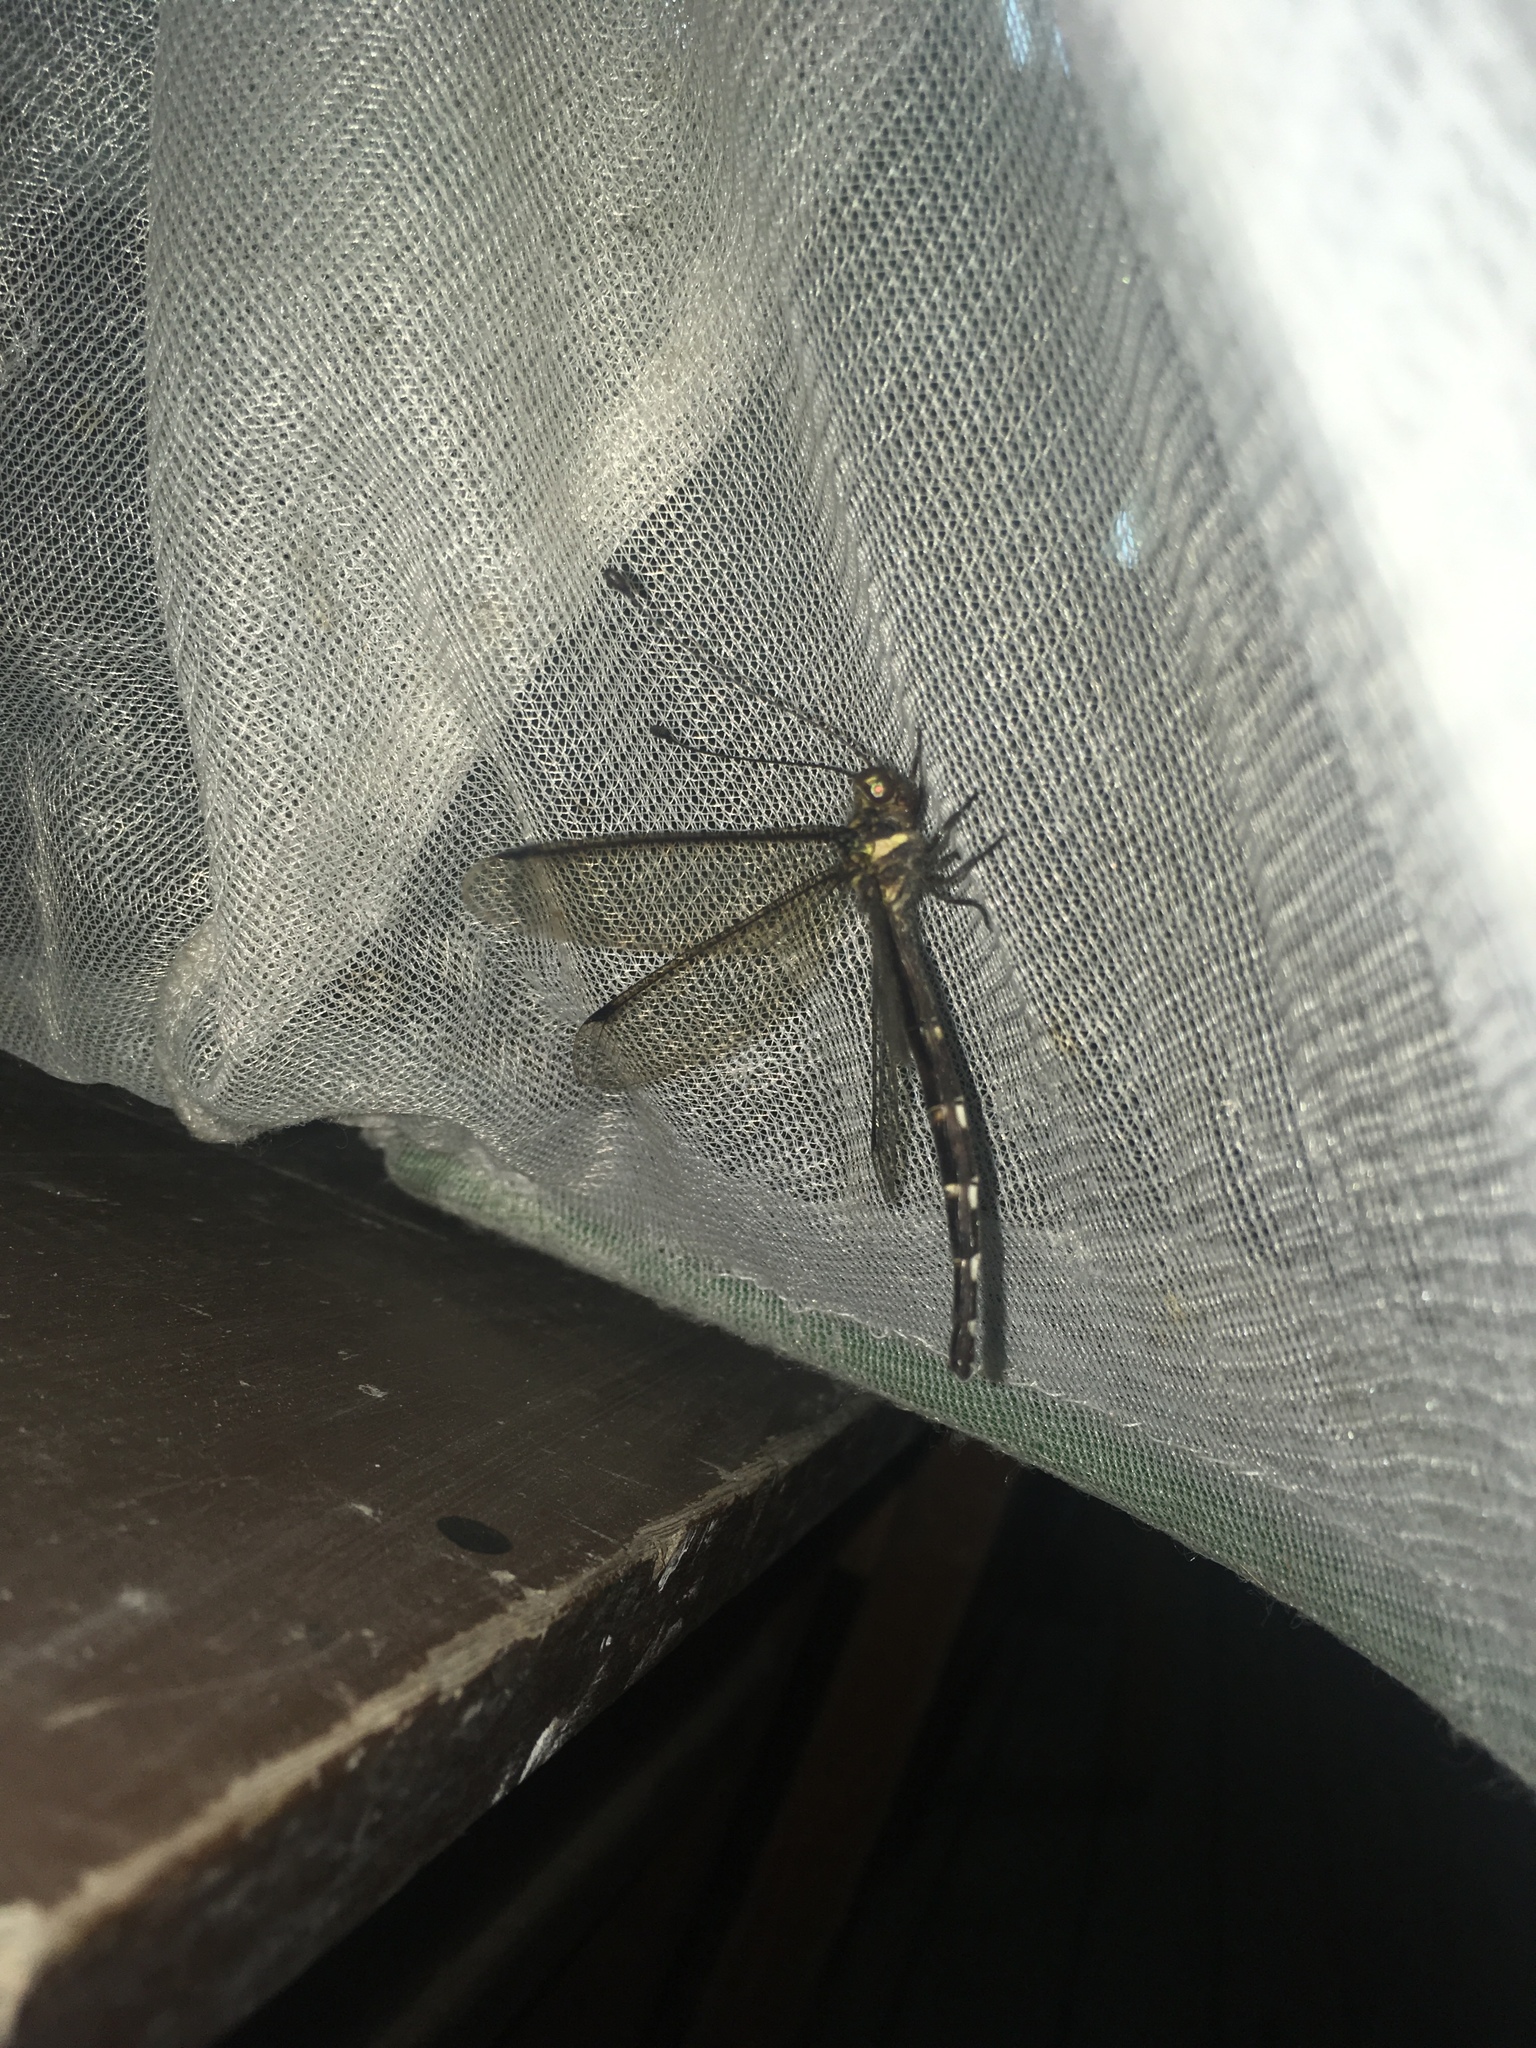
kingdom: Animalia
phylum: Arthropoda
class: Insecta
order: Neuroptera
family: Ascalaphidae
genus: Glyptobasis
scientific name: Glyptobasis fraseri
